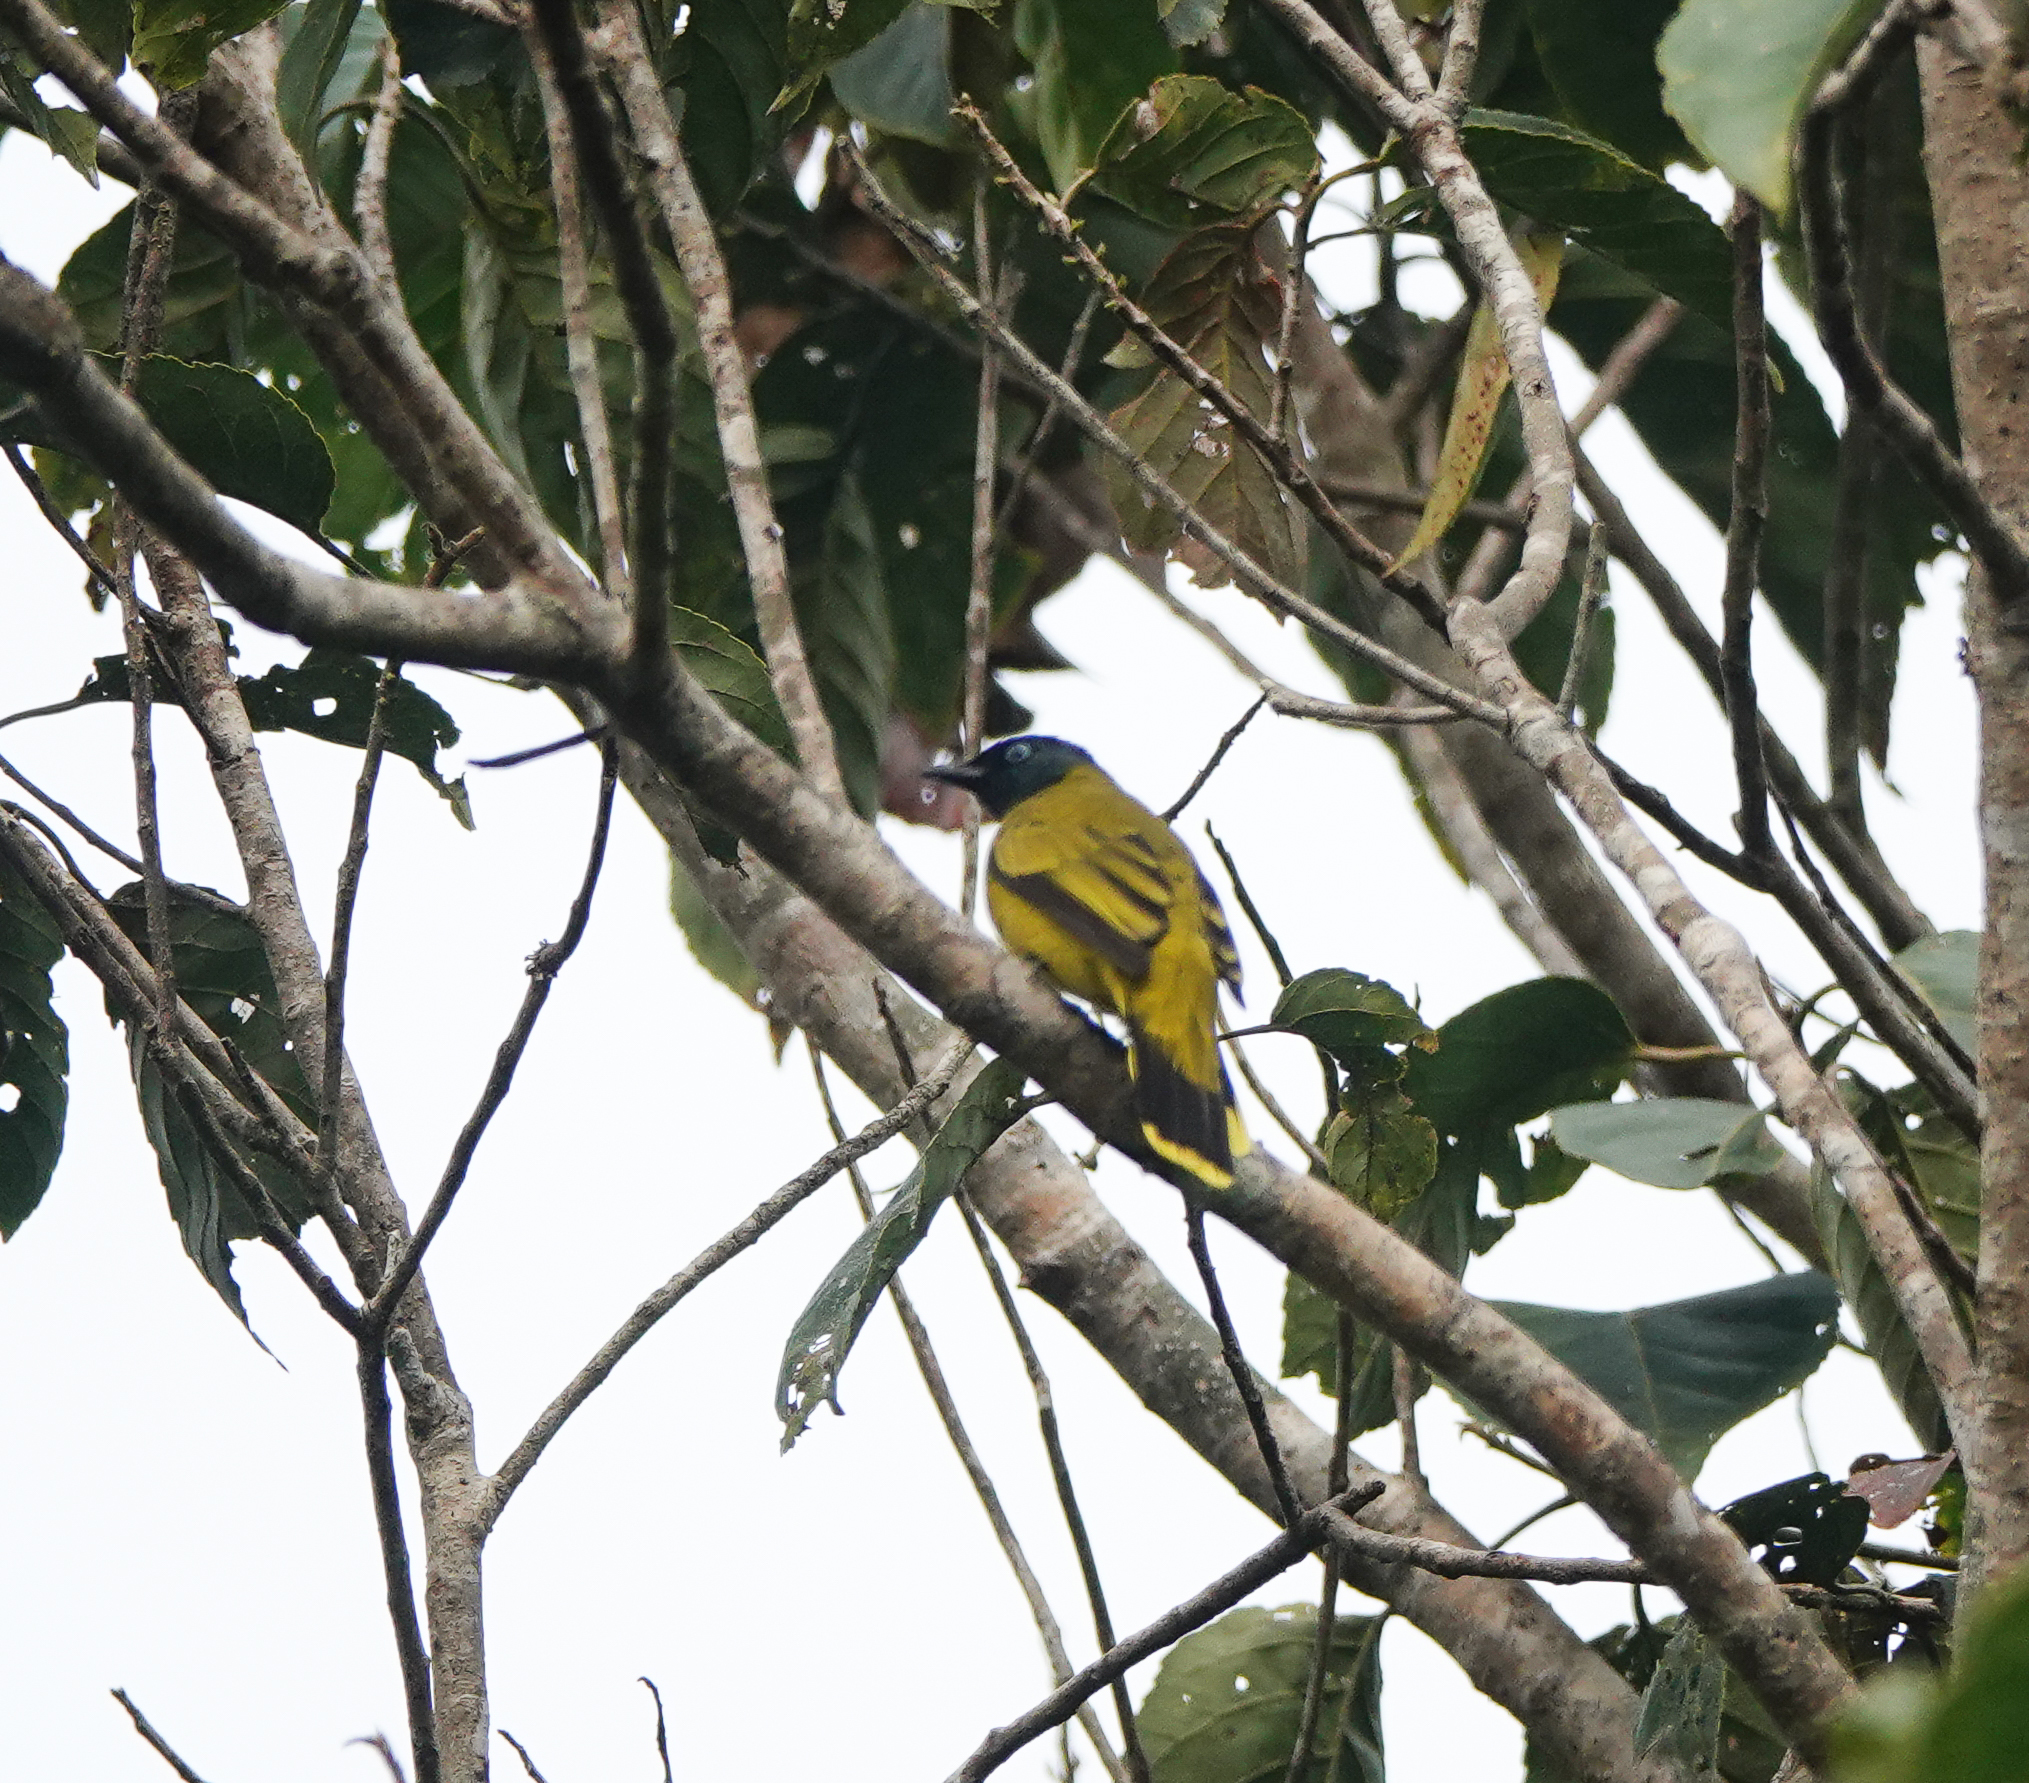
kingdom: Animalia
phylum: Chordata
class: Aves
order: Passeriformes
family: Pycnonotidae
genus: Microtarsus
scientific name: Microtarsus
